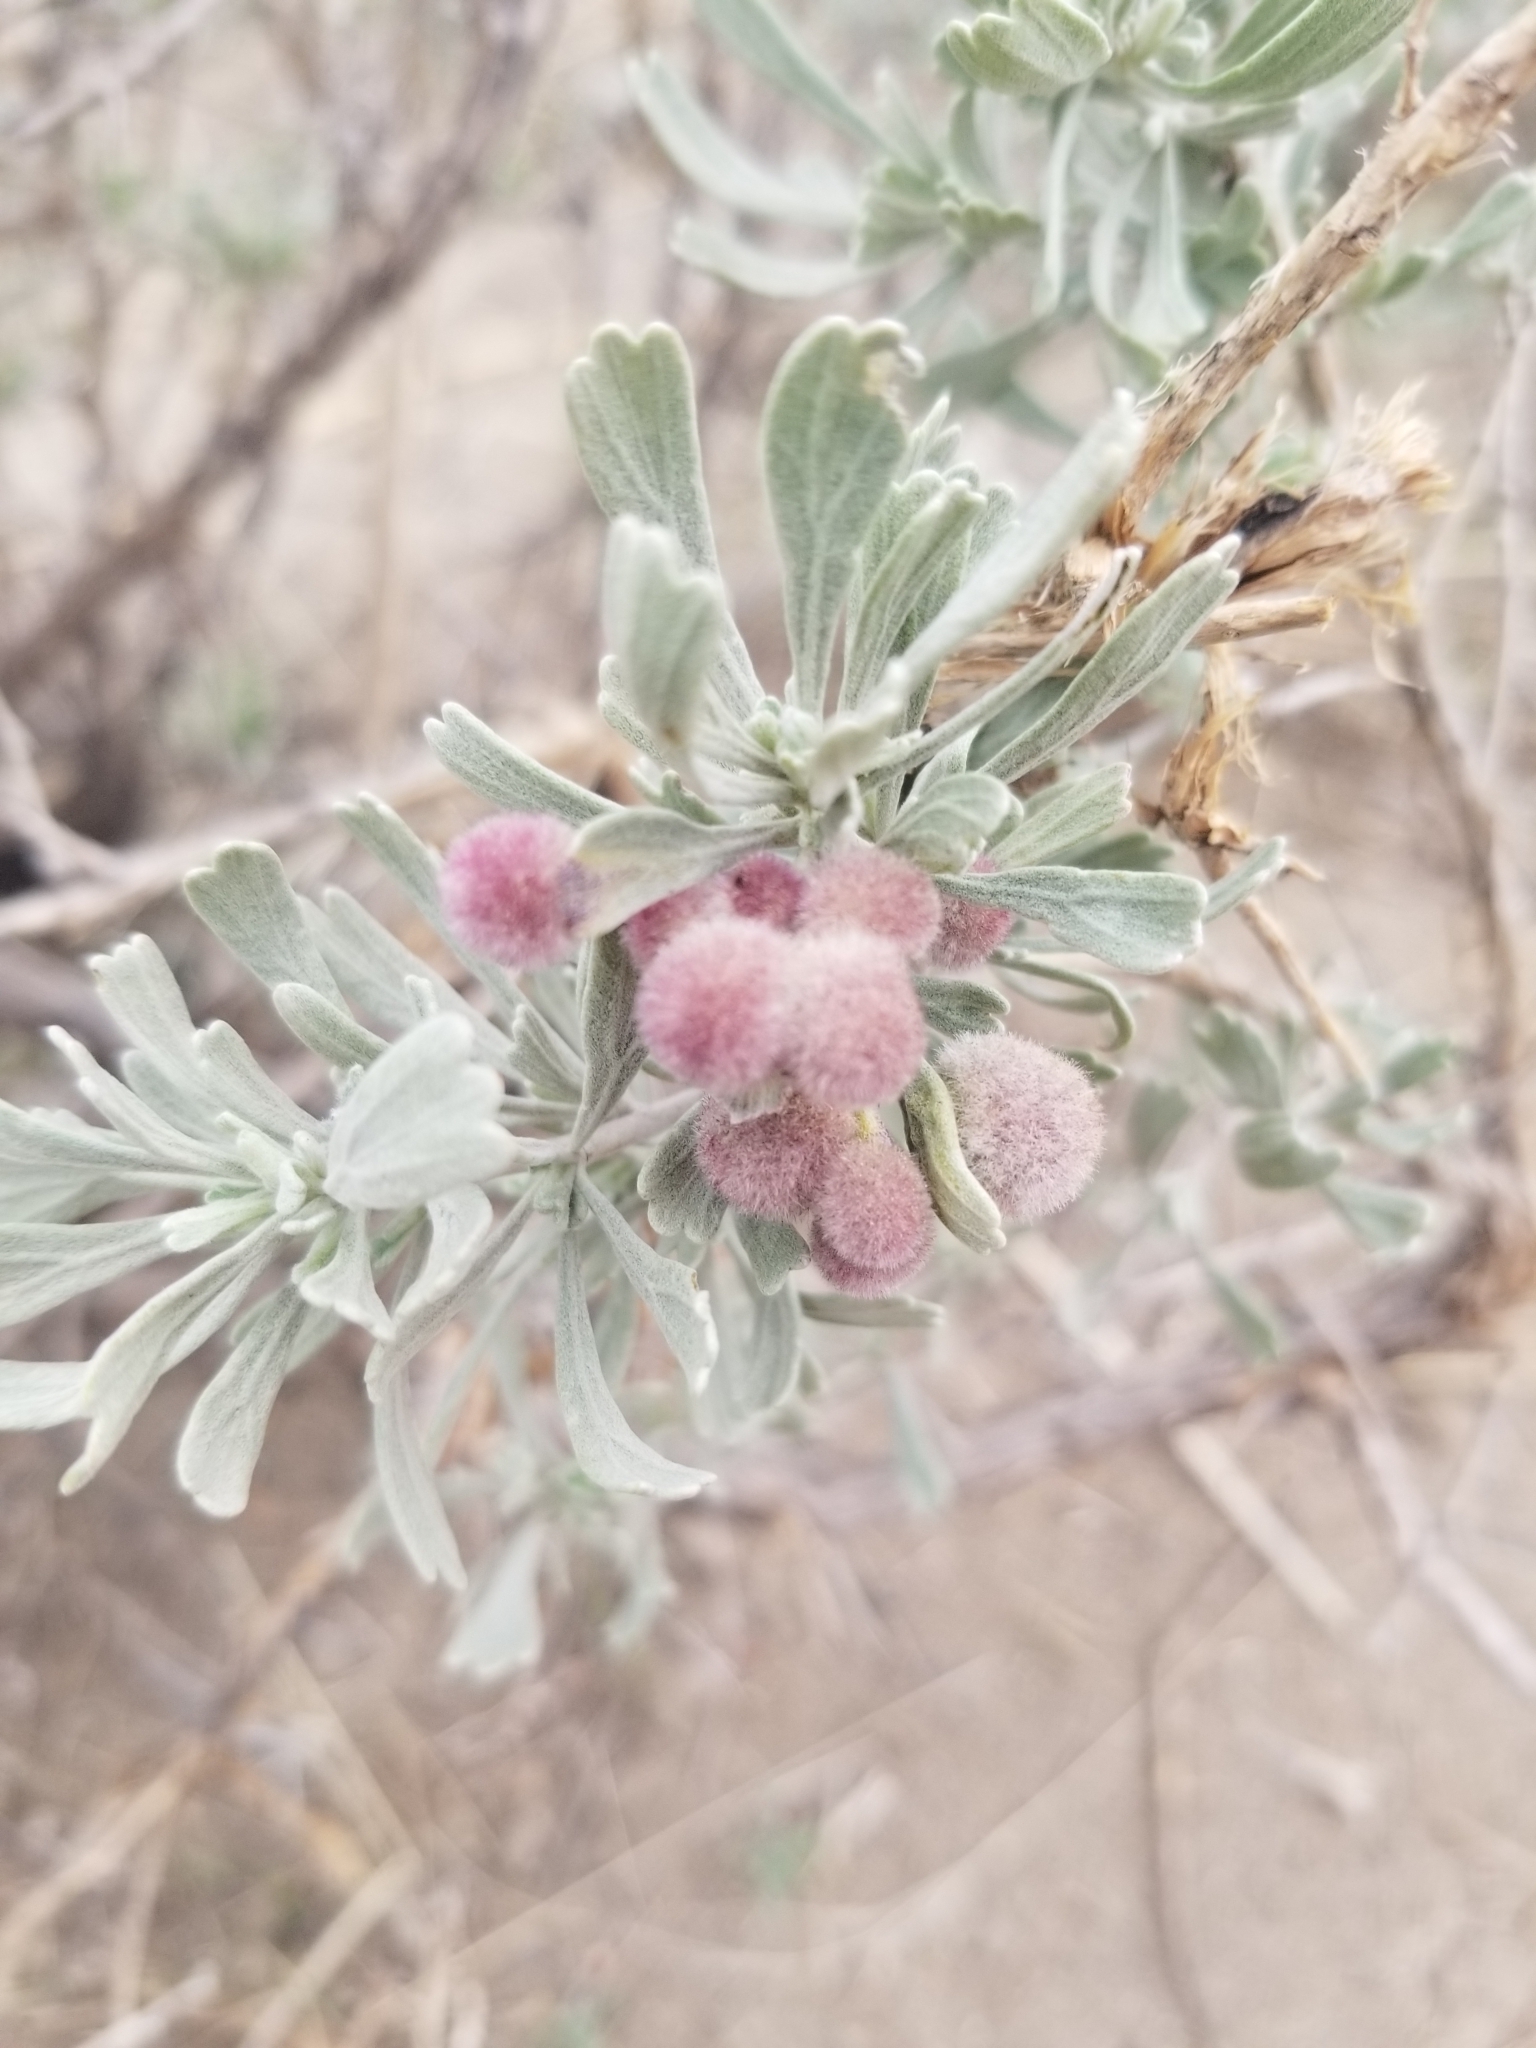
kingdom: Animalia
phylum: Arthropoda
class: Insecta
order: Diptera
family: Cecidomyiidae
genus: Rhopalomyia
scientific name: Rhopalomyia hirtipomum
